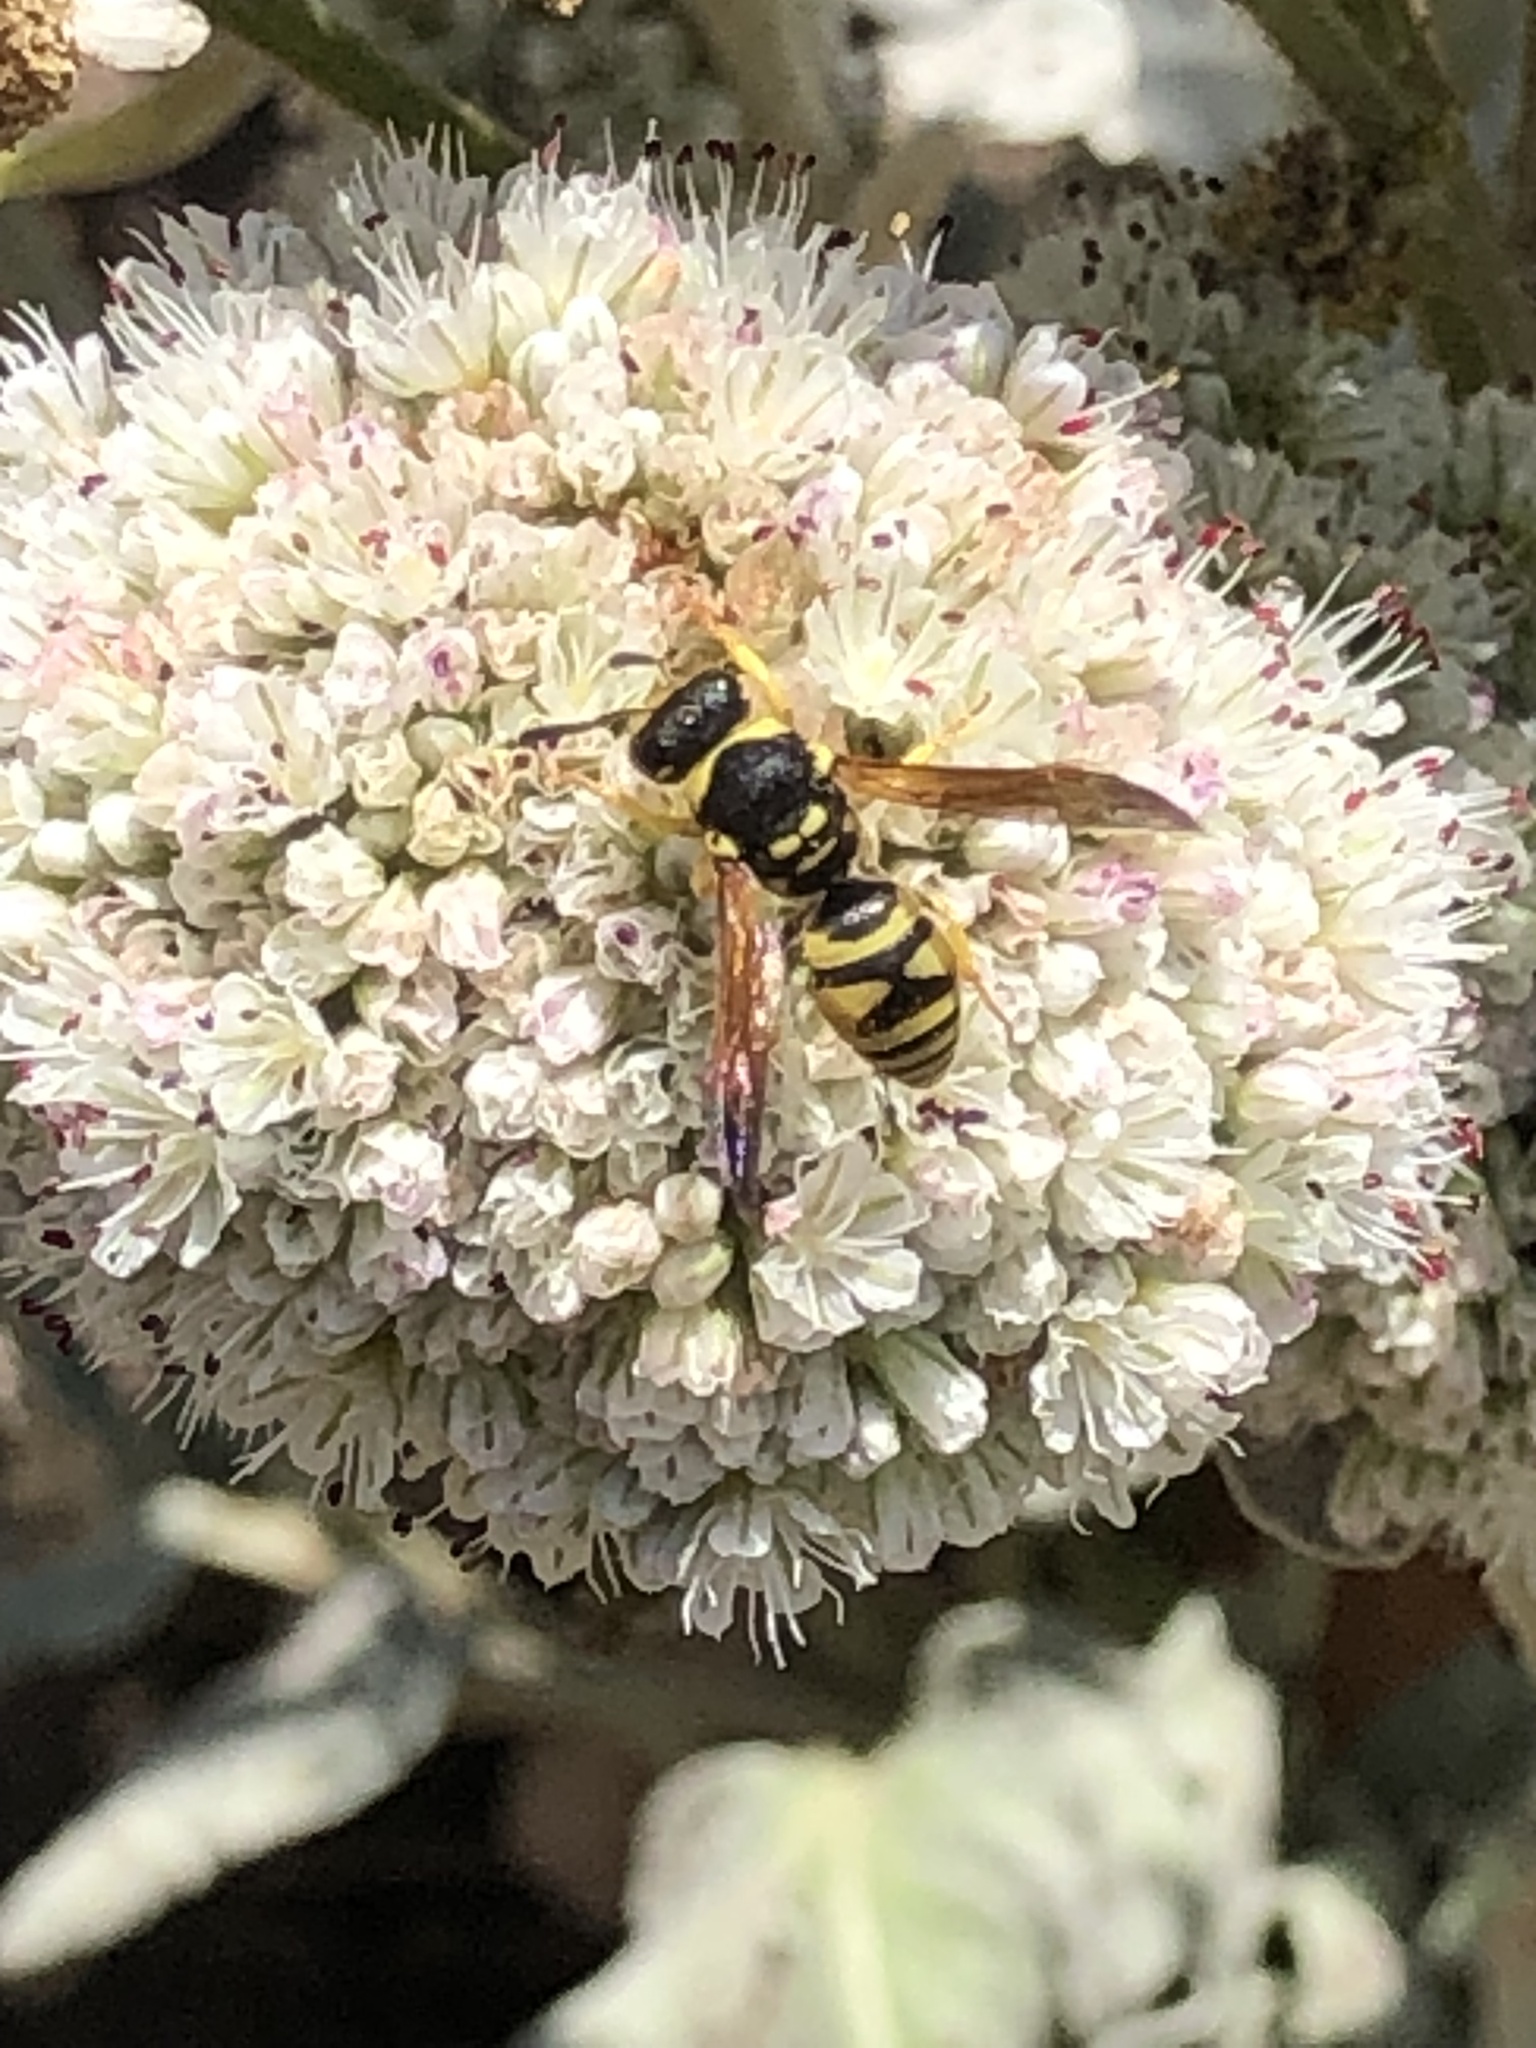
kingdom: Animalia
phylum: Arthropoda
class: Insecta
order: Hymenoptera
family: Eumenidae
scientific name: Eumenidae
